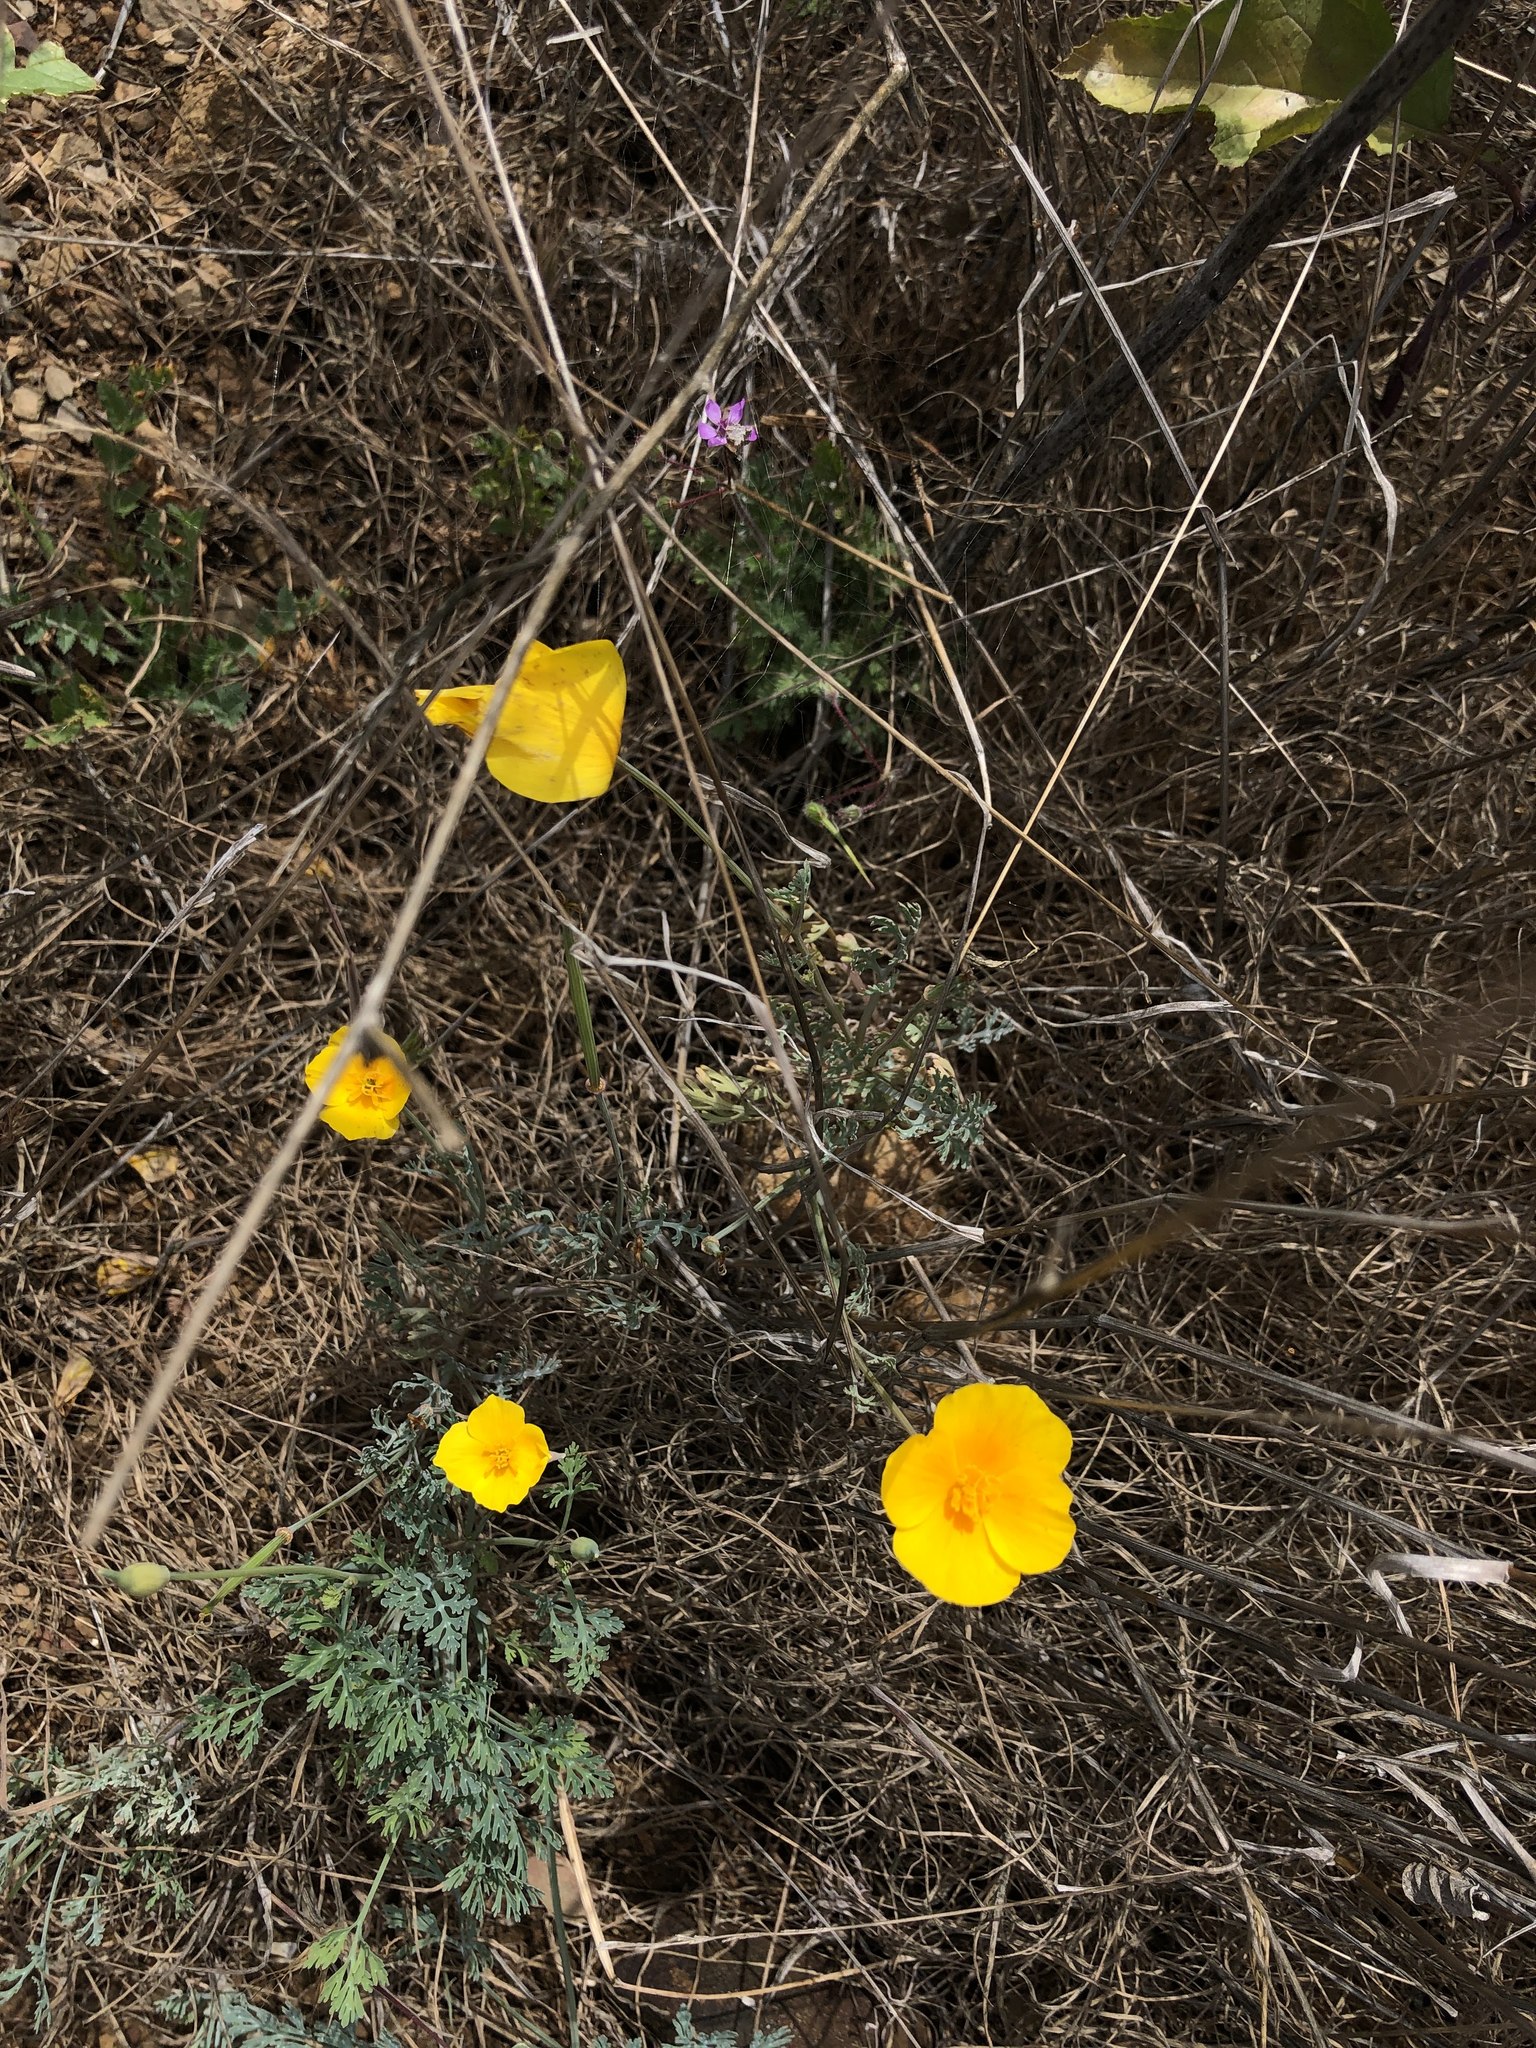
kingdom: Plantae
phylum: Tracheophyta
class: Magnoliopsida
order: Ranunculales
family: Papaveraceae
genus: Eschscholzia
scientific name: Eschscholzia californica
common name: California poppy
